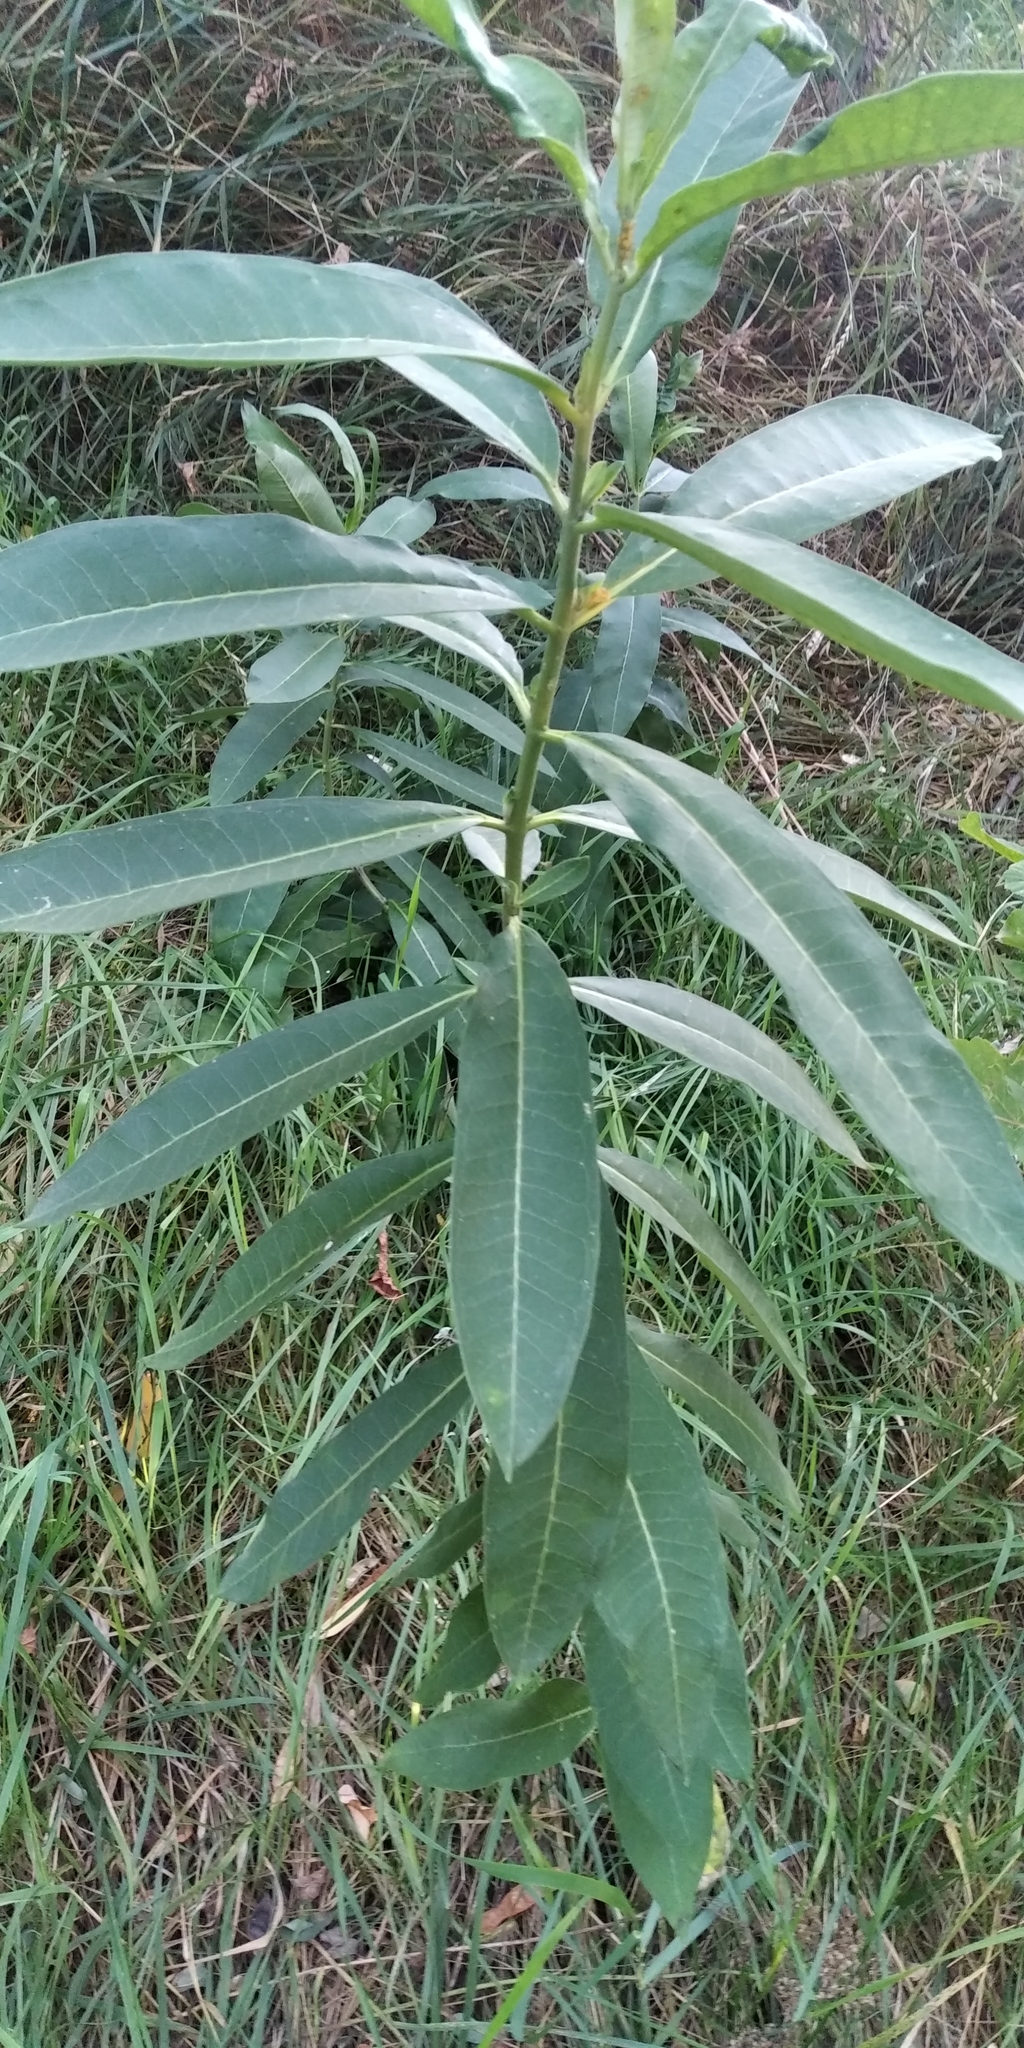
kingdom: Plantae
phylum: Tracheophyta
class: Magnoliopsida
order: Gentianales
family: Apocynaceae
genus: Asclepias
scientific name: Asclepias syriaca
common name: Common milkweed
